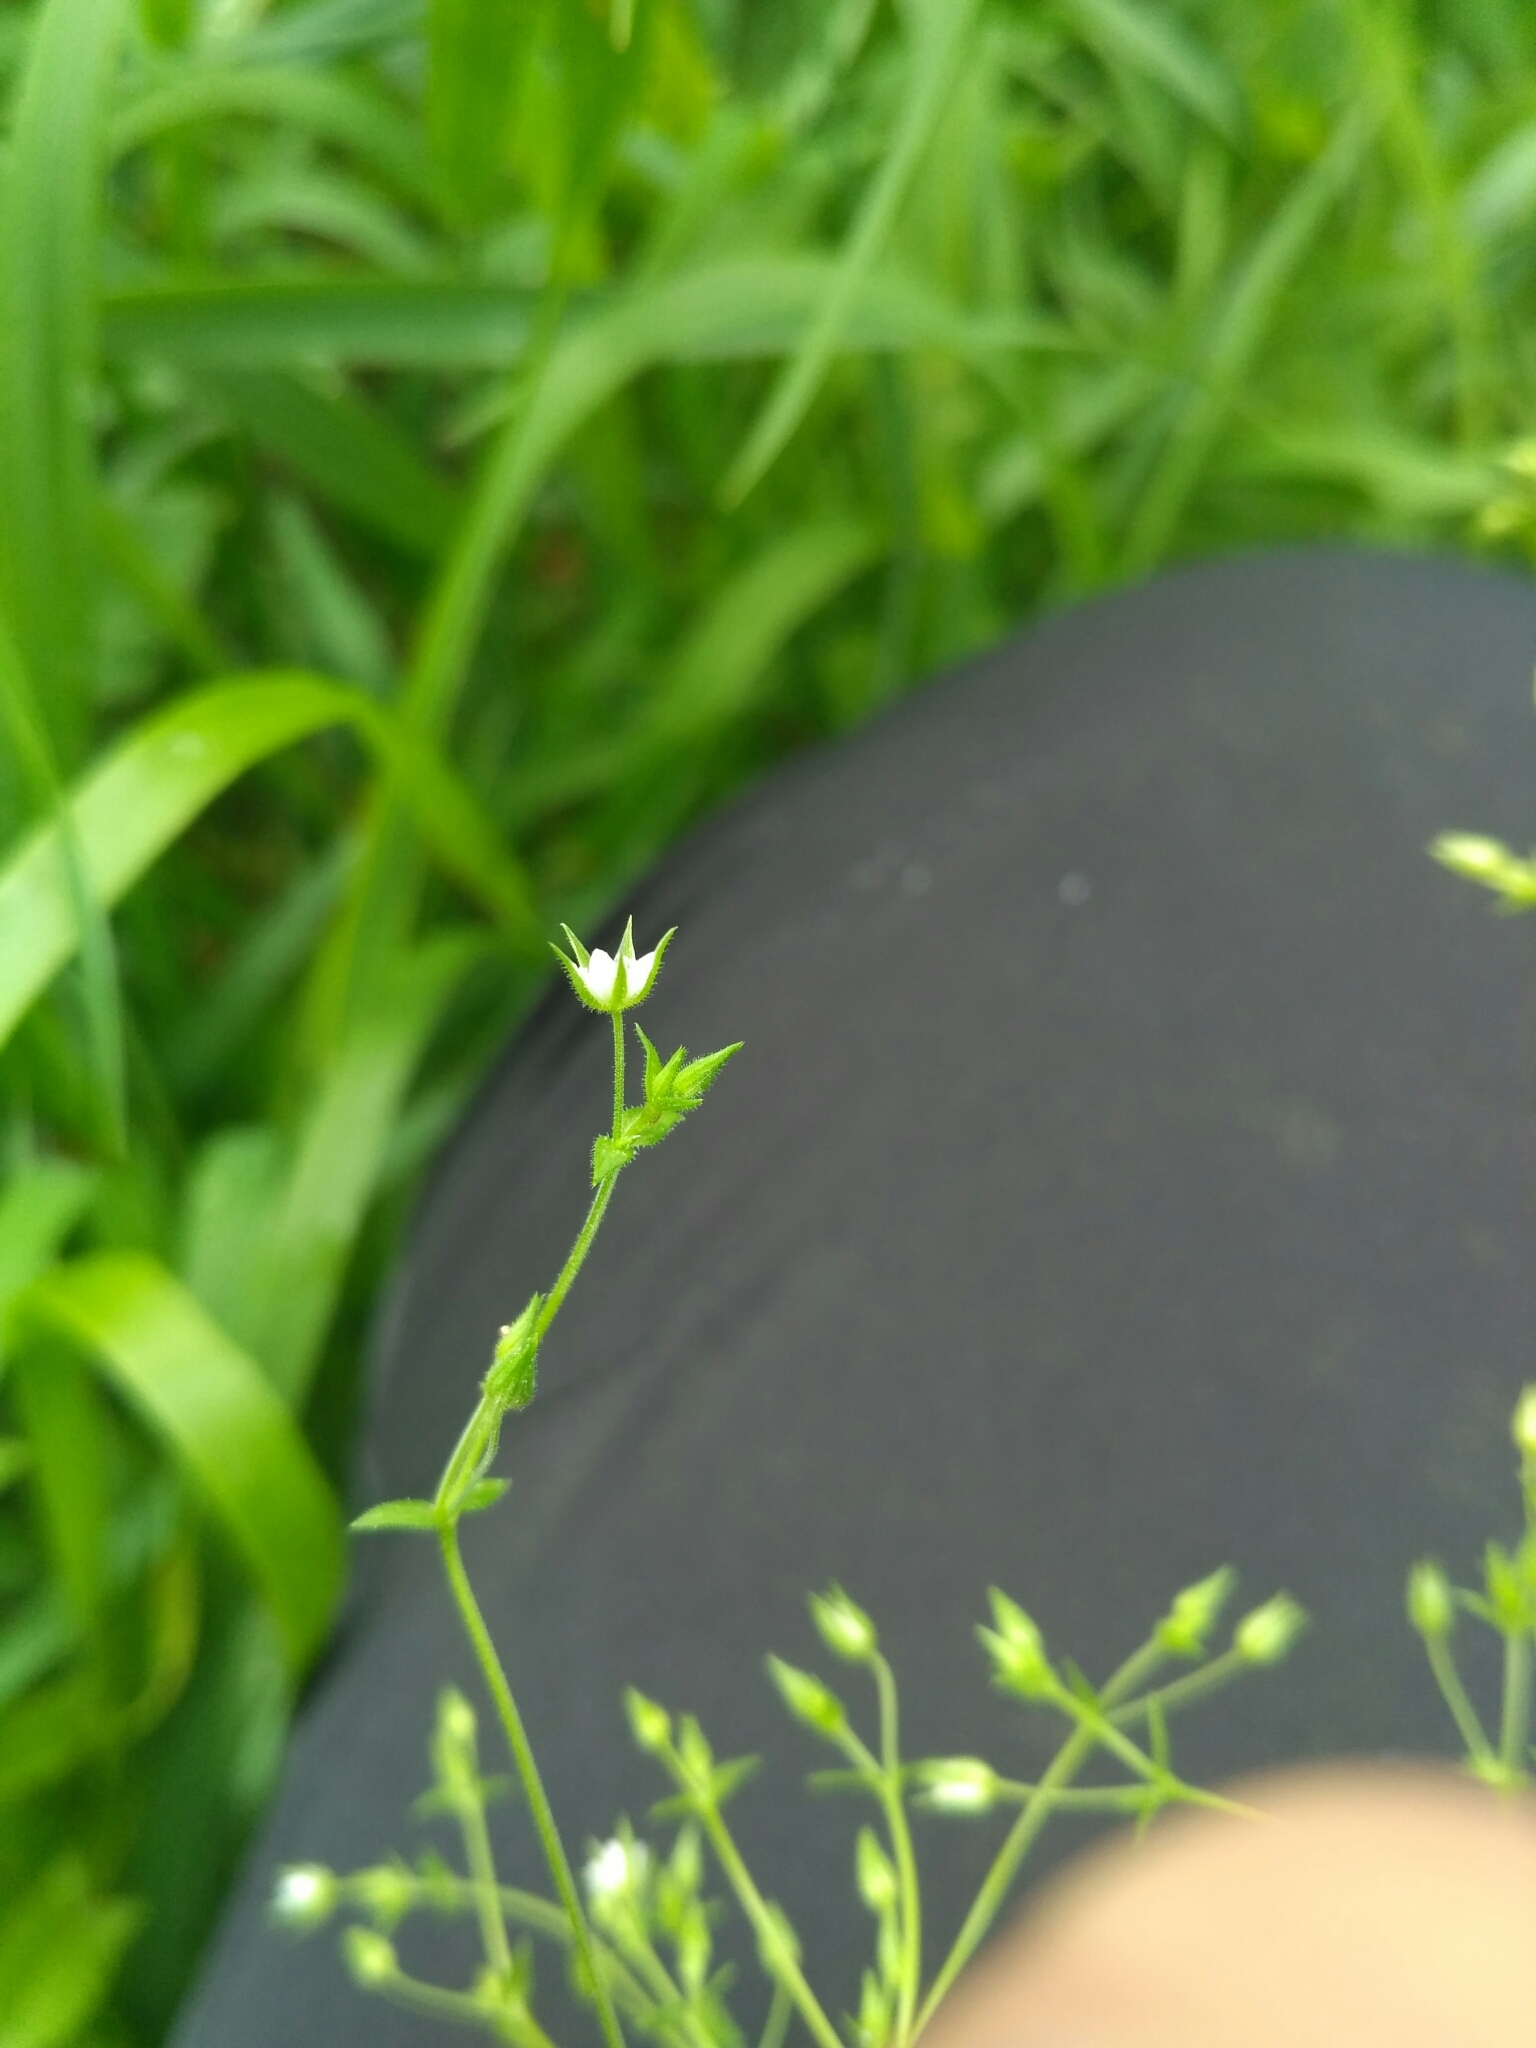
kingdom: Plantae
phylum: Tracheophyta
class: Magnoliopsida
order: Caryophyllales
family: Caryophyllaceae
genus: Arenaria
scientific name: Arenaria serpyllifolia
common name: Thyme-leaved sandwort
